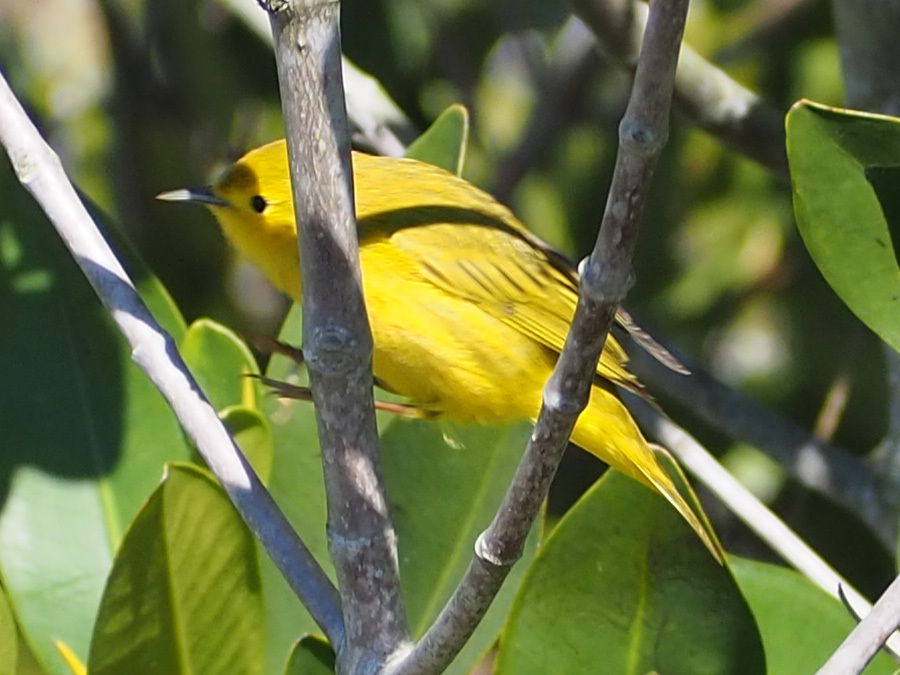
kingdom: Animalia
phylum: Chordata
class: Aves
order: Passeriformes
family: Parulidae
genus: Setophaga
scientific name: Setophaga petechia
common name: Yellow warbler
